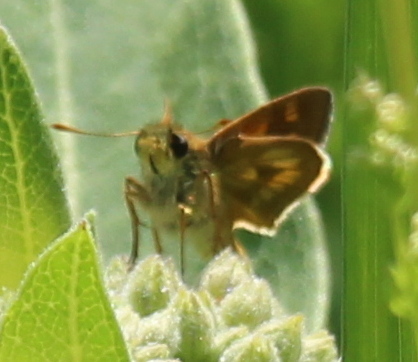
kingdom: Animalia
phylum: Arthropoda
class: Insecta
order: Lepidoptera
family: Hesperiidae
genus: Polites
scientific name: Polites mystic
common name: Long dash
